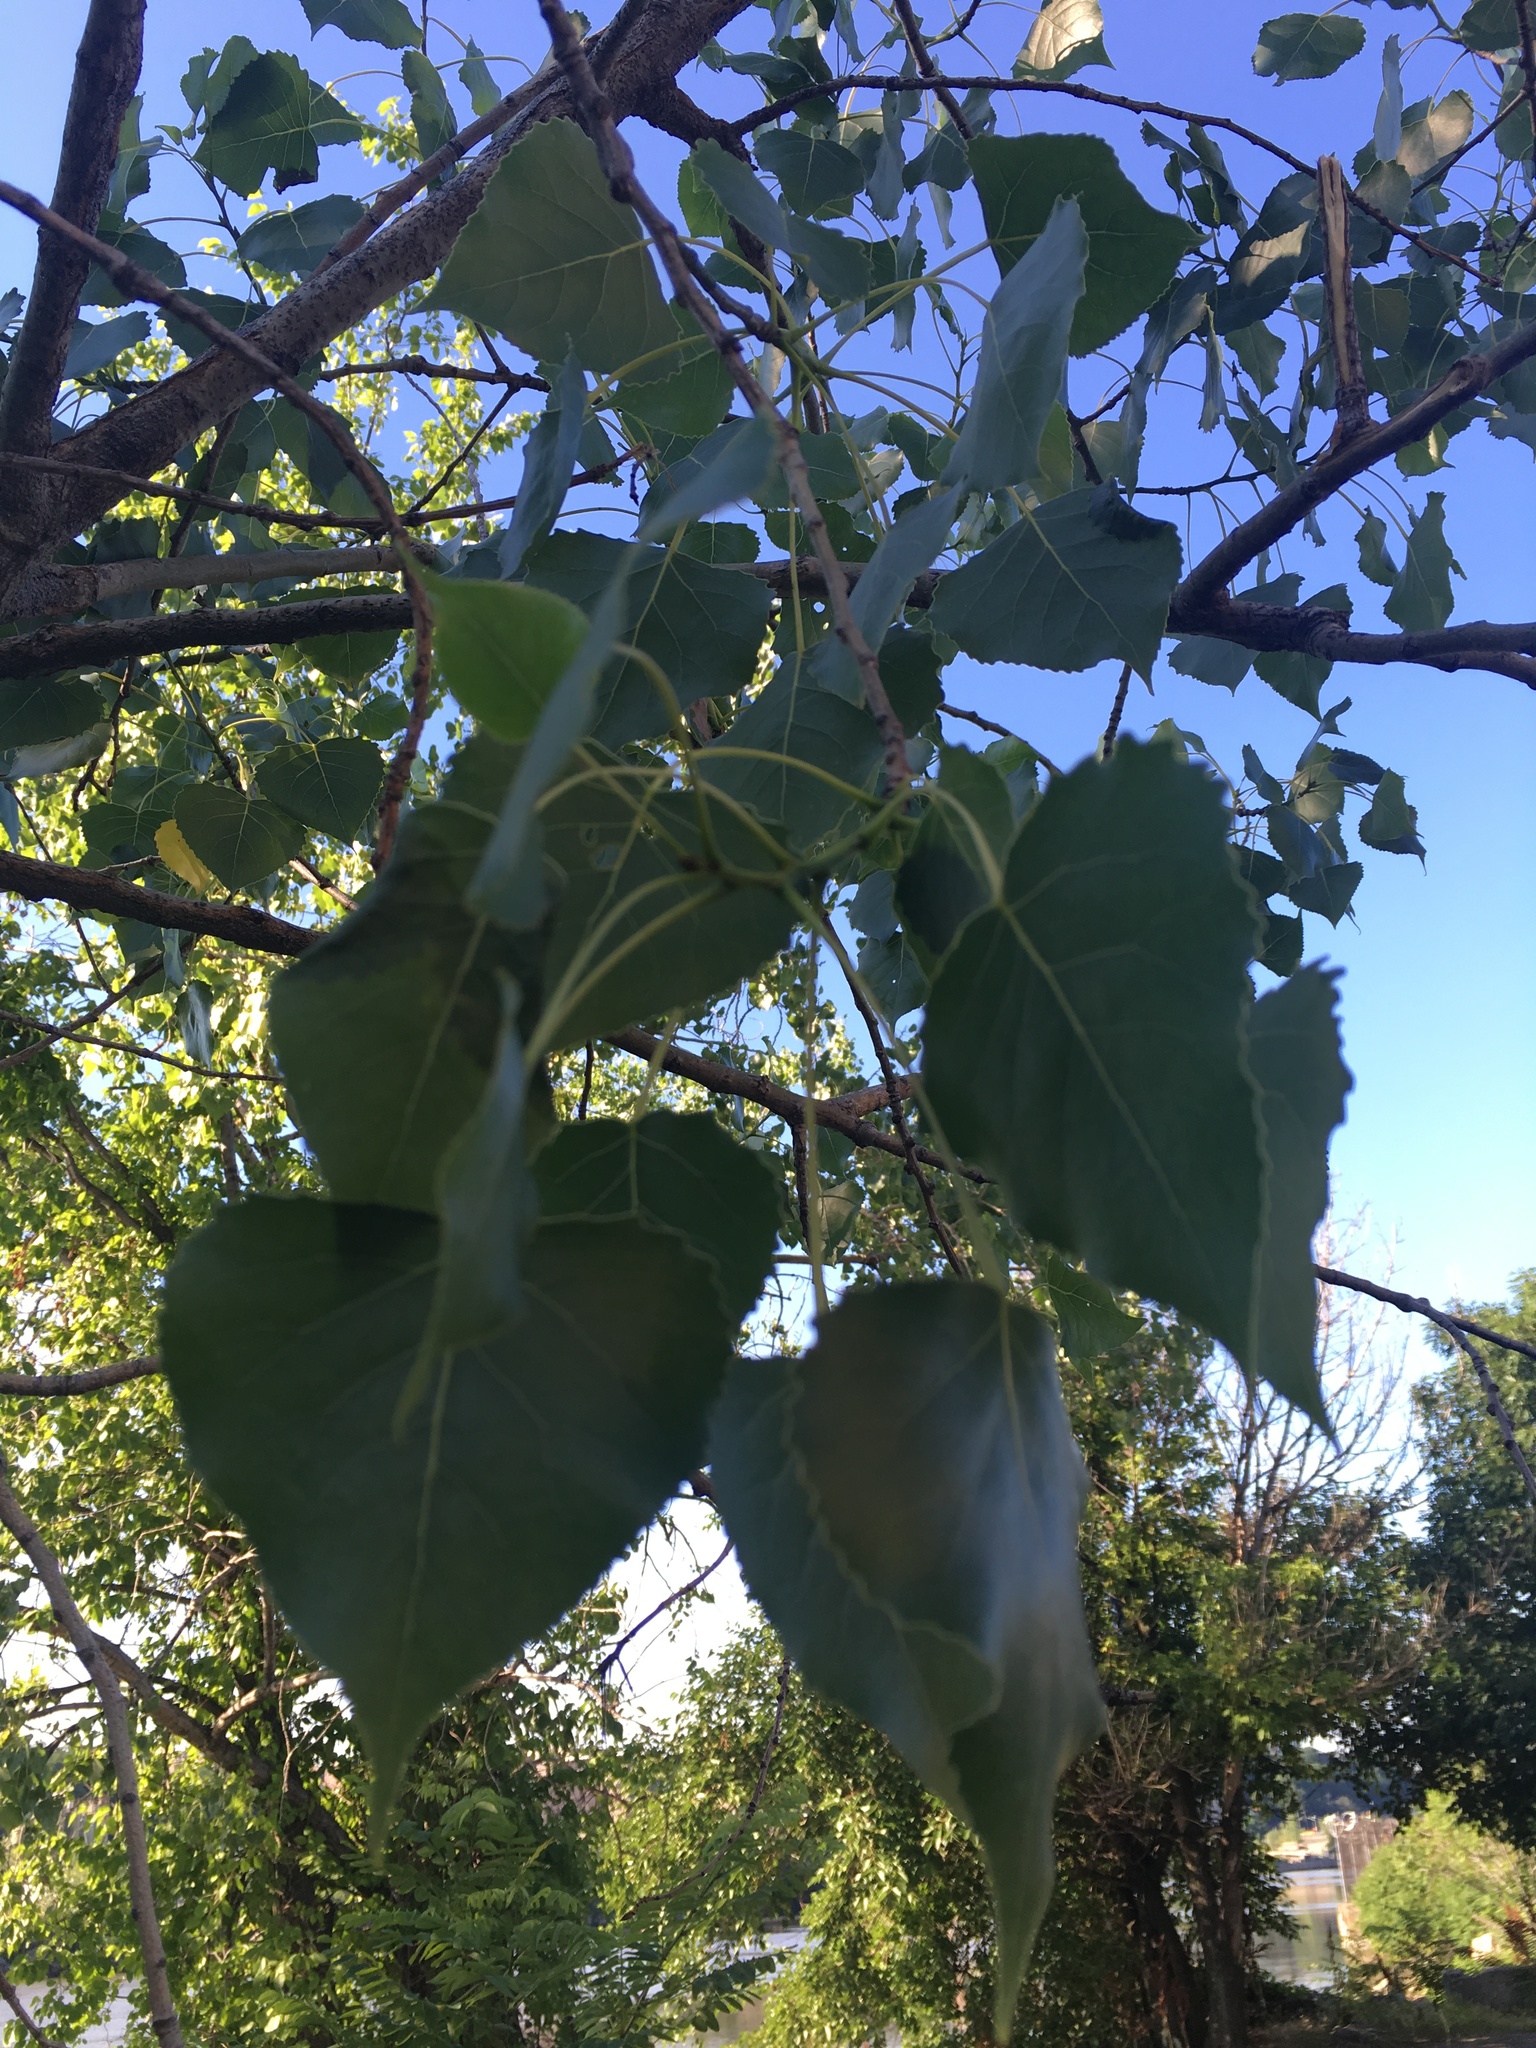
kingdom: Plantae
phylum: Tracheophyta
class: Magnoliopsida
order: Malpighiales
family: Salicaceae
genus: Populus
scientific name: Populus deltoides
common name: Eastern cottonwood
